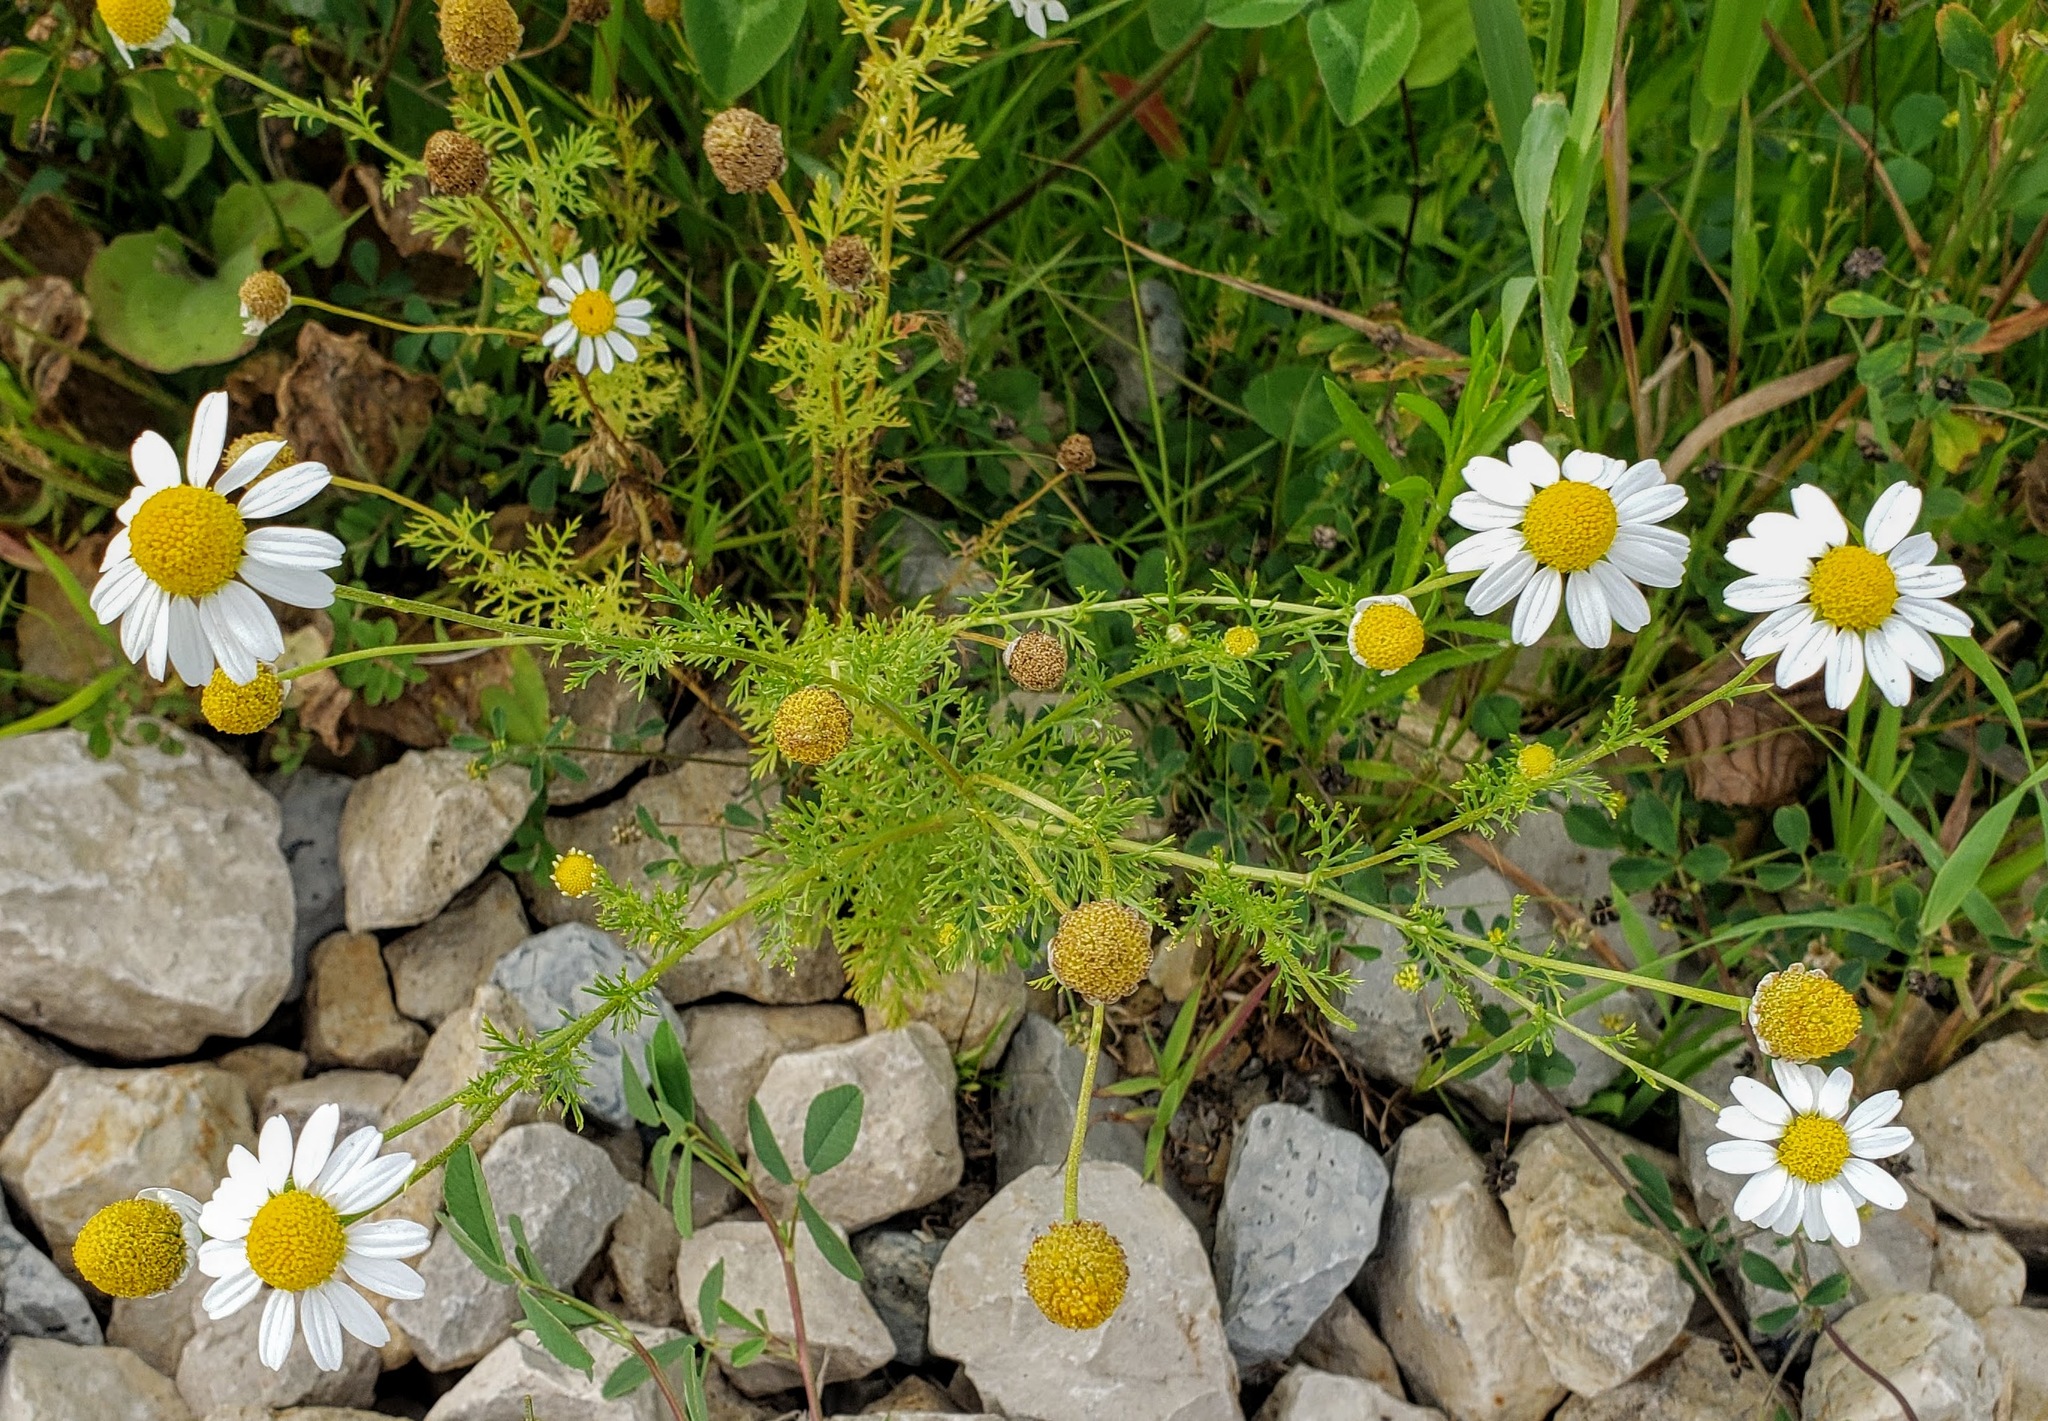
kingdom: Plantae
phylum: Tracheophyta
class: Magnoliopsida
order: Asterales
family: Asteraceae
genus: Anthemis
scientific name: Anthemis cotula
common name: Stinking chamomile
